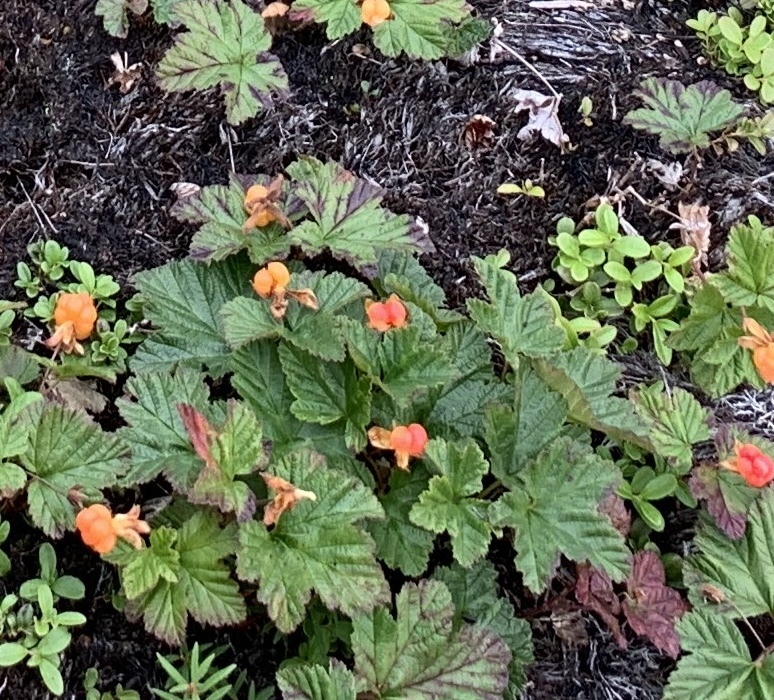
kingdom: Plantae
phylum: Tracheophyta
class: Magnoliopsida
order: Rosales
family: Rosaceae
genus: Rubus
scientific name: Rubus chamaemorus
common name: Cloudberry
